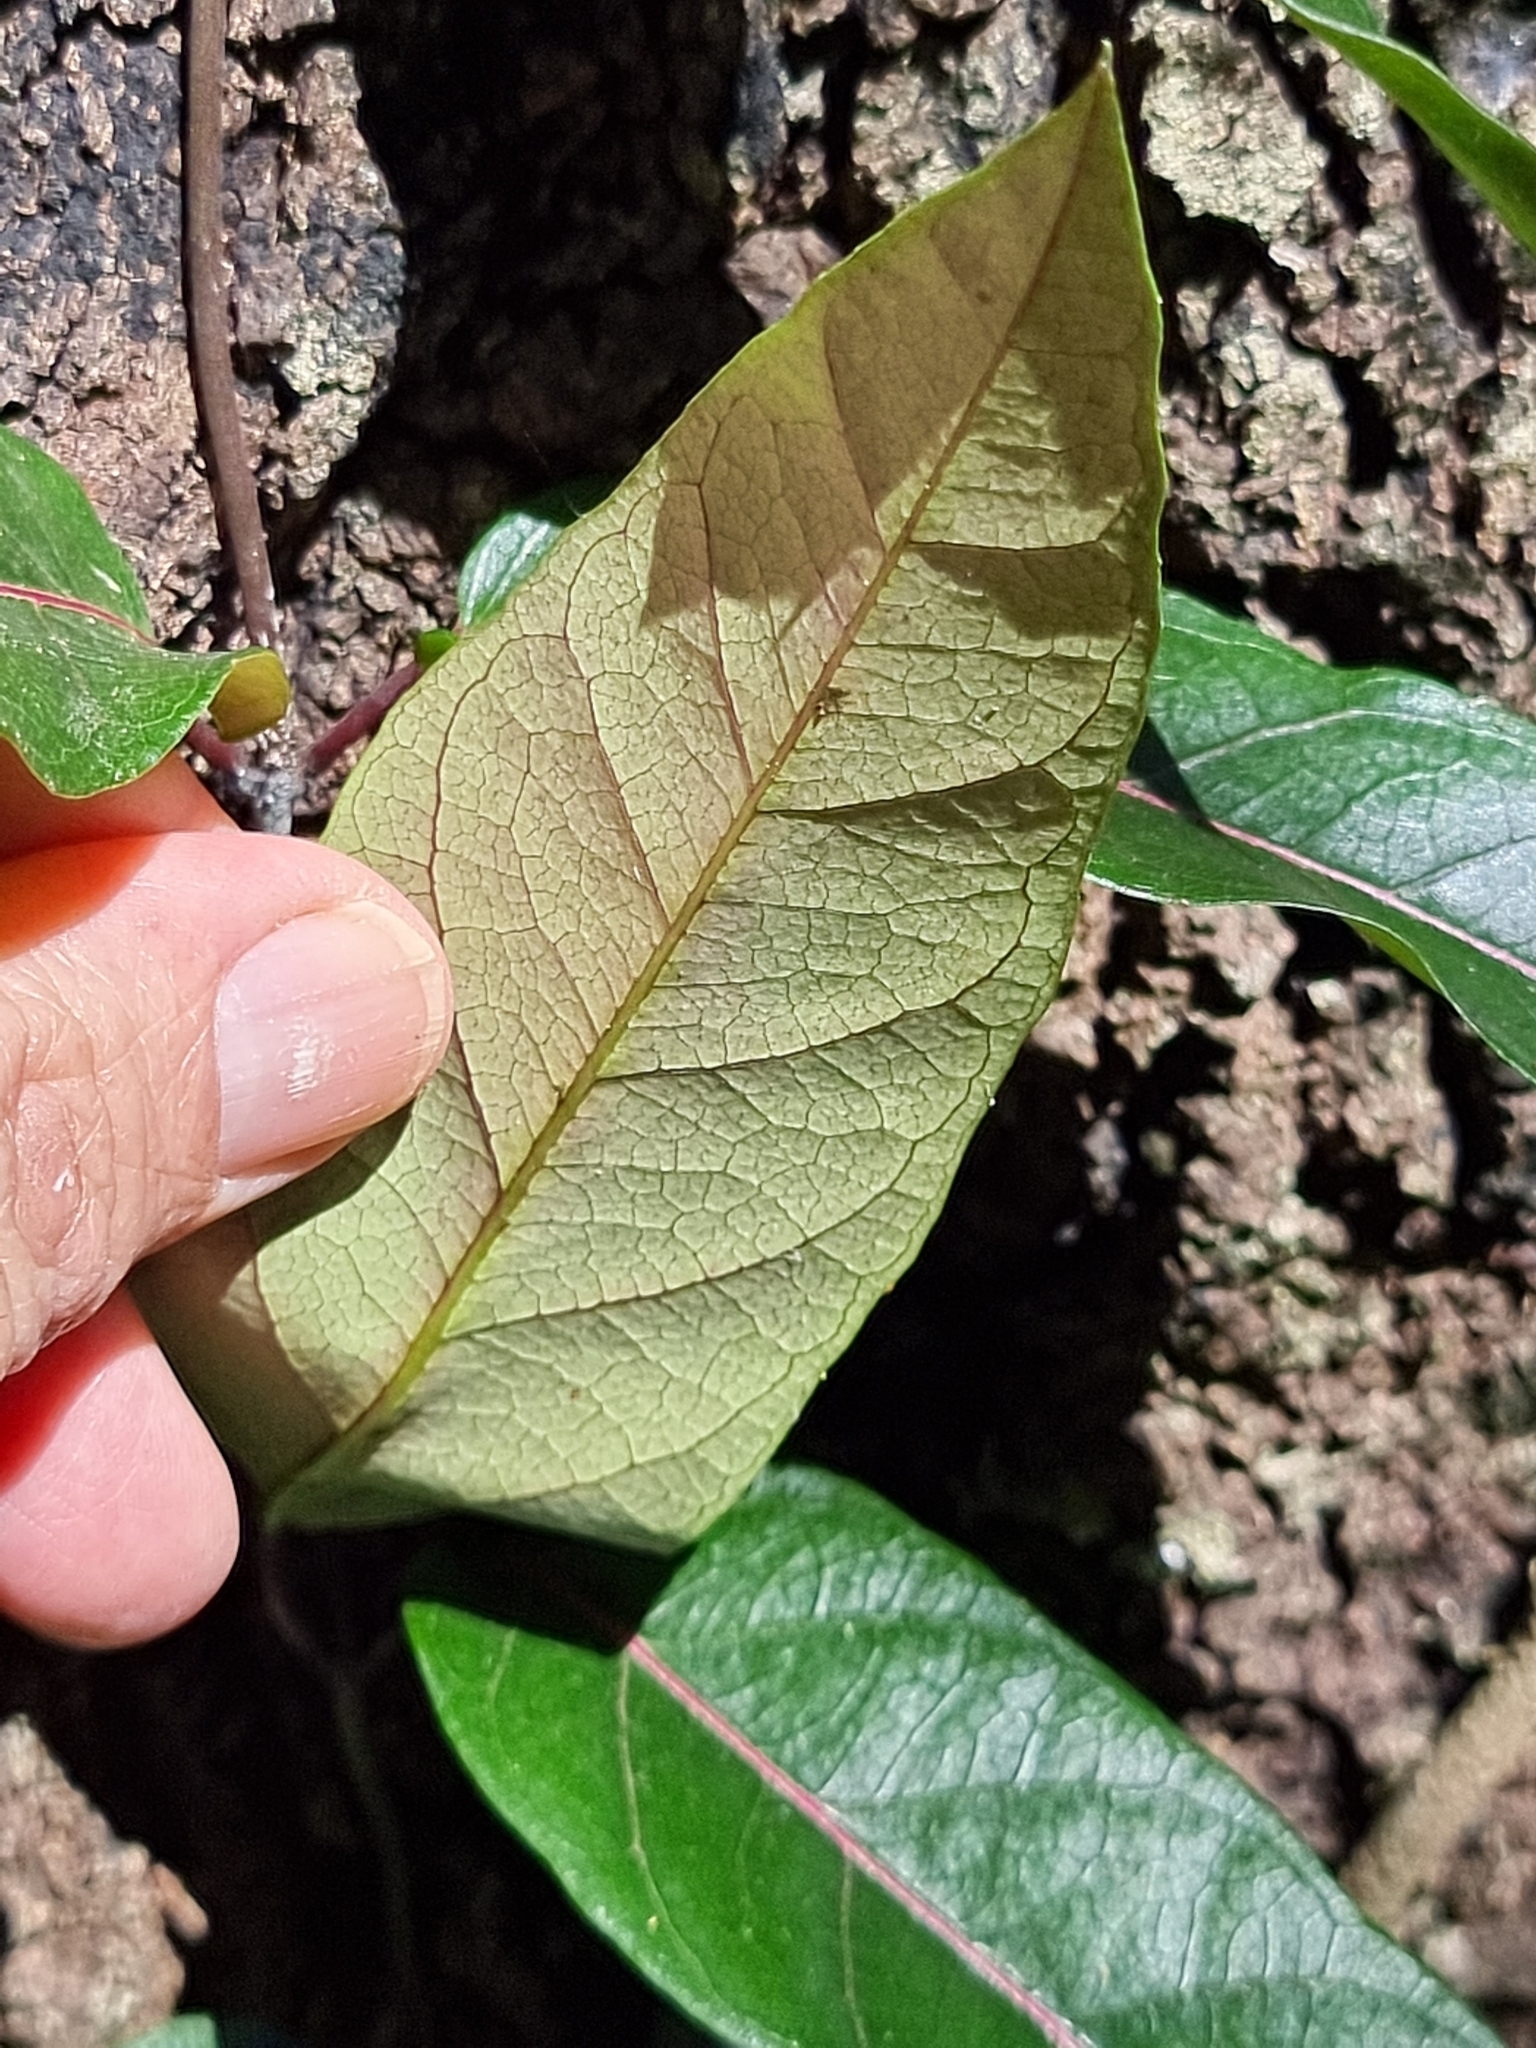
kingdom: Plantae
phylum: Tracheophyta
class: Magnoliopsida
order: Gentianales
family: Apocynaceae
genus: Parsonsia
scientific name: Parsonsia straminea
